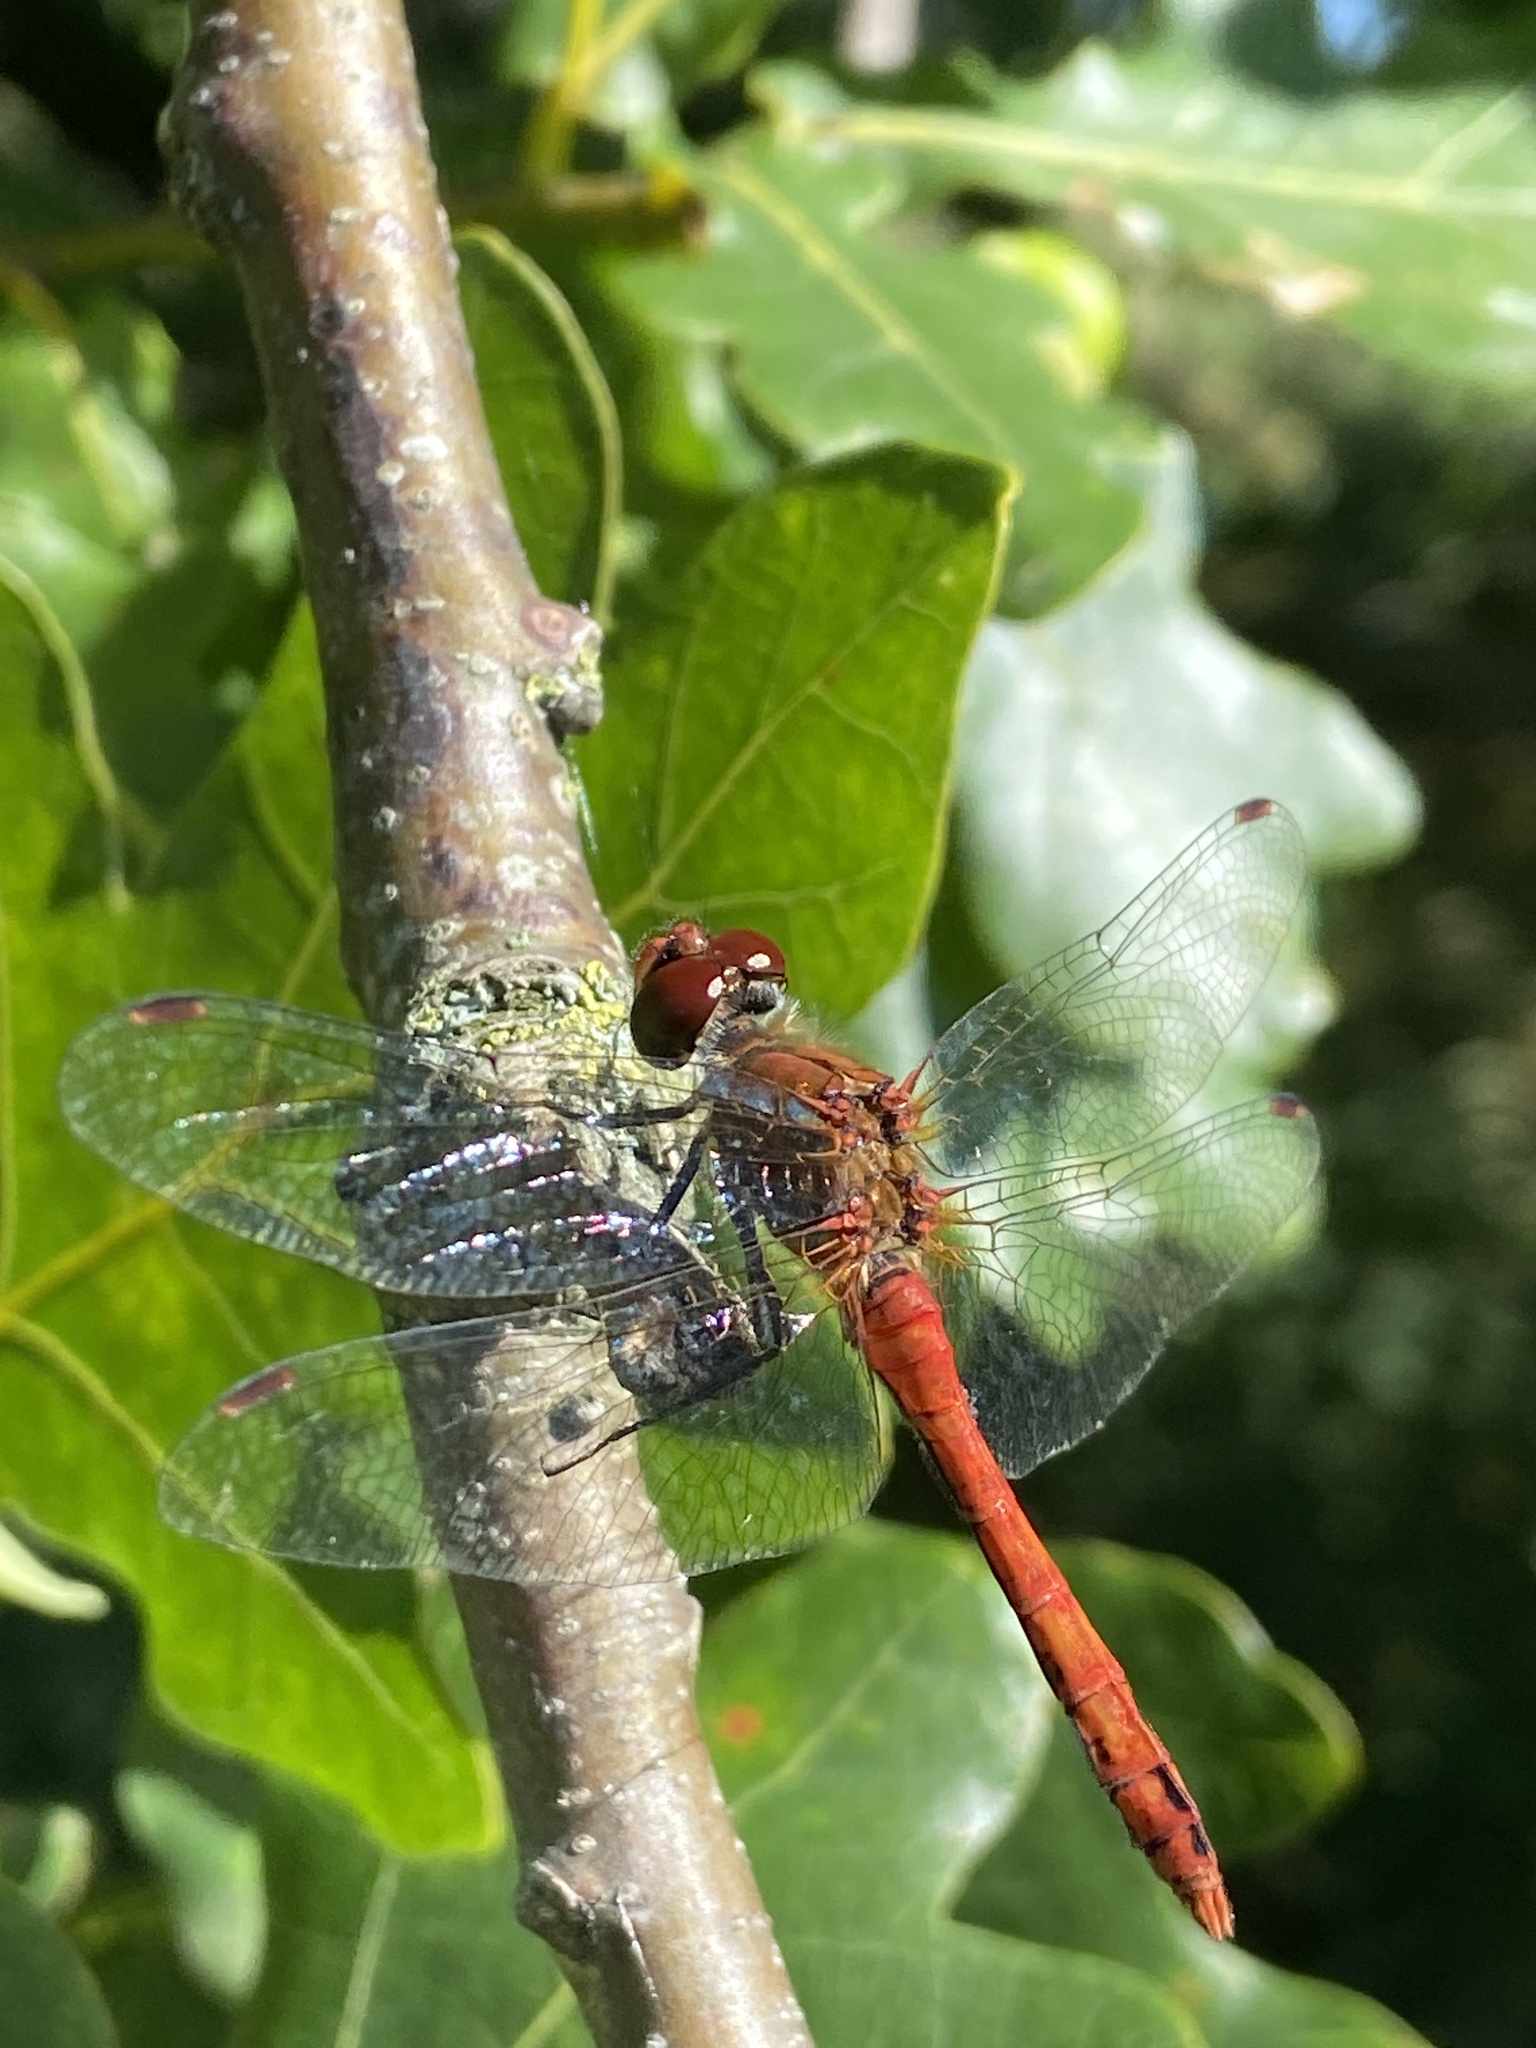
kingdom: Animalia
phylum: Arthropoda
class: Insecta
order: Odonata
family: Libellulidae
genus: Sympetrum
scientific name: Sympetrum sanguineum
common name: Ruddy darter
